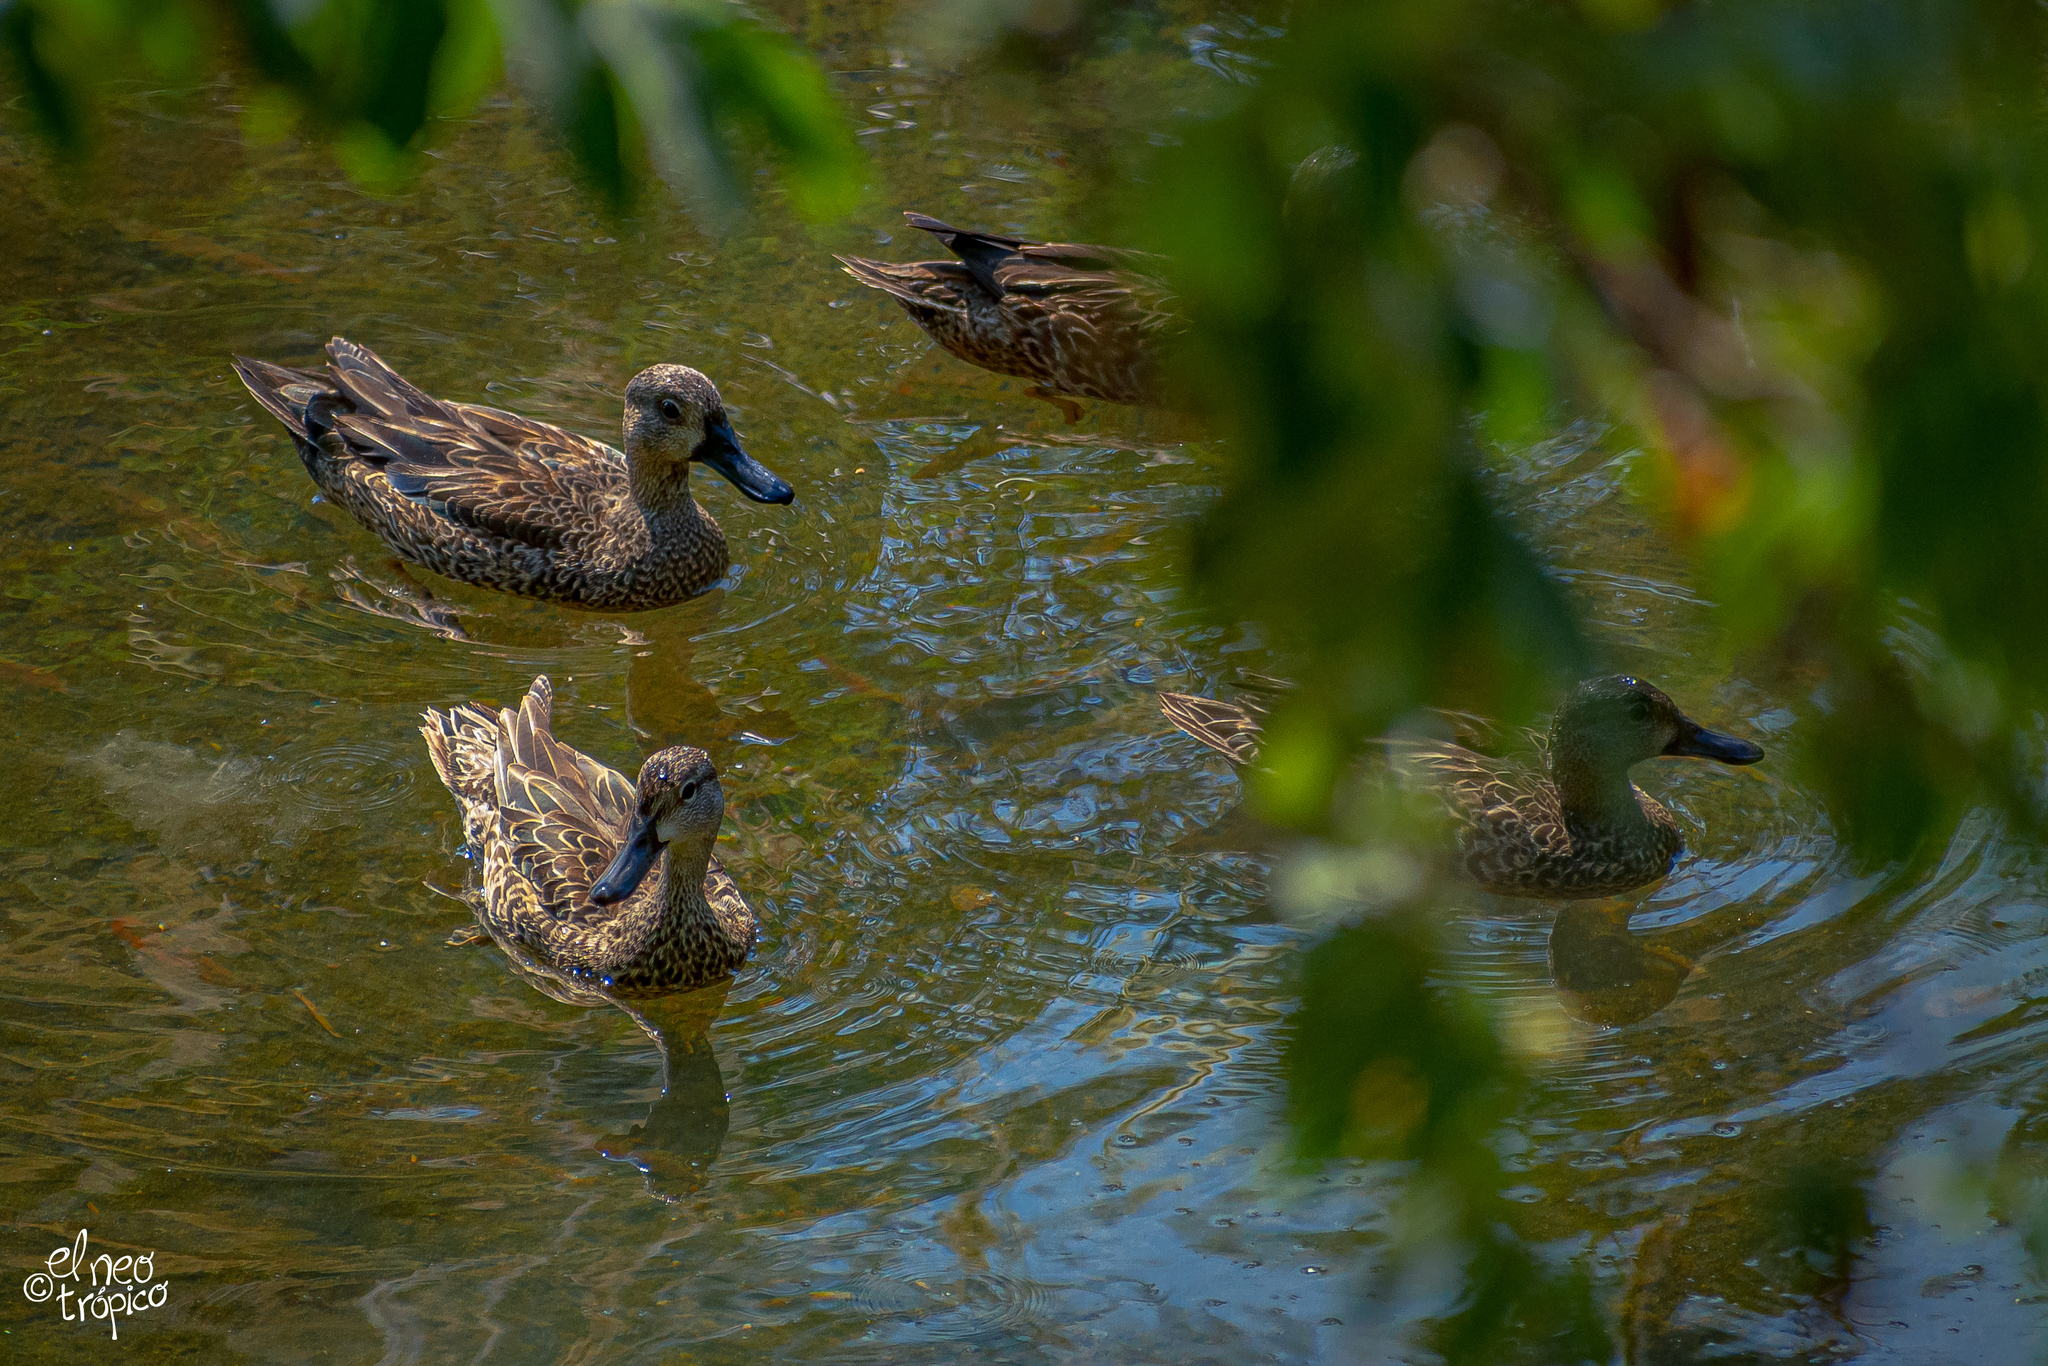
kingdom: Animalia
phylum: Chordata
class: Aves
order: Anseriformes
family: Anatidae
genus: Spatula
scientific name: Spatula discors
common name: Blue-winged teal
